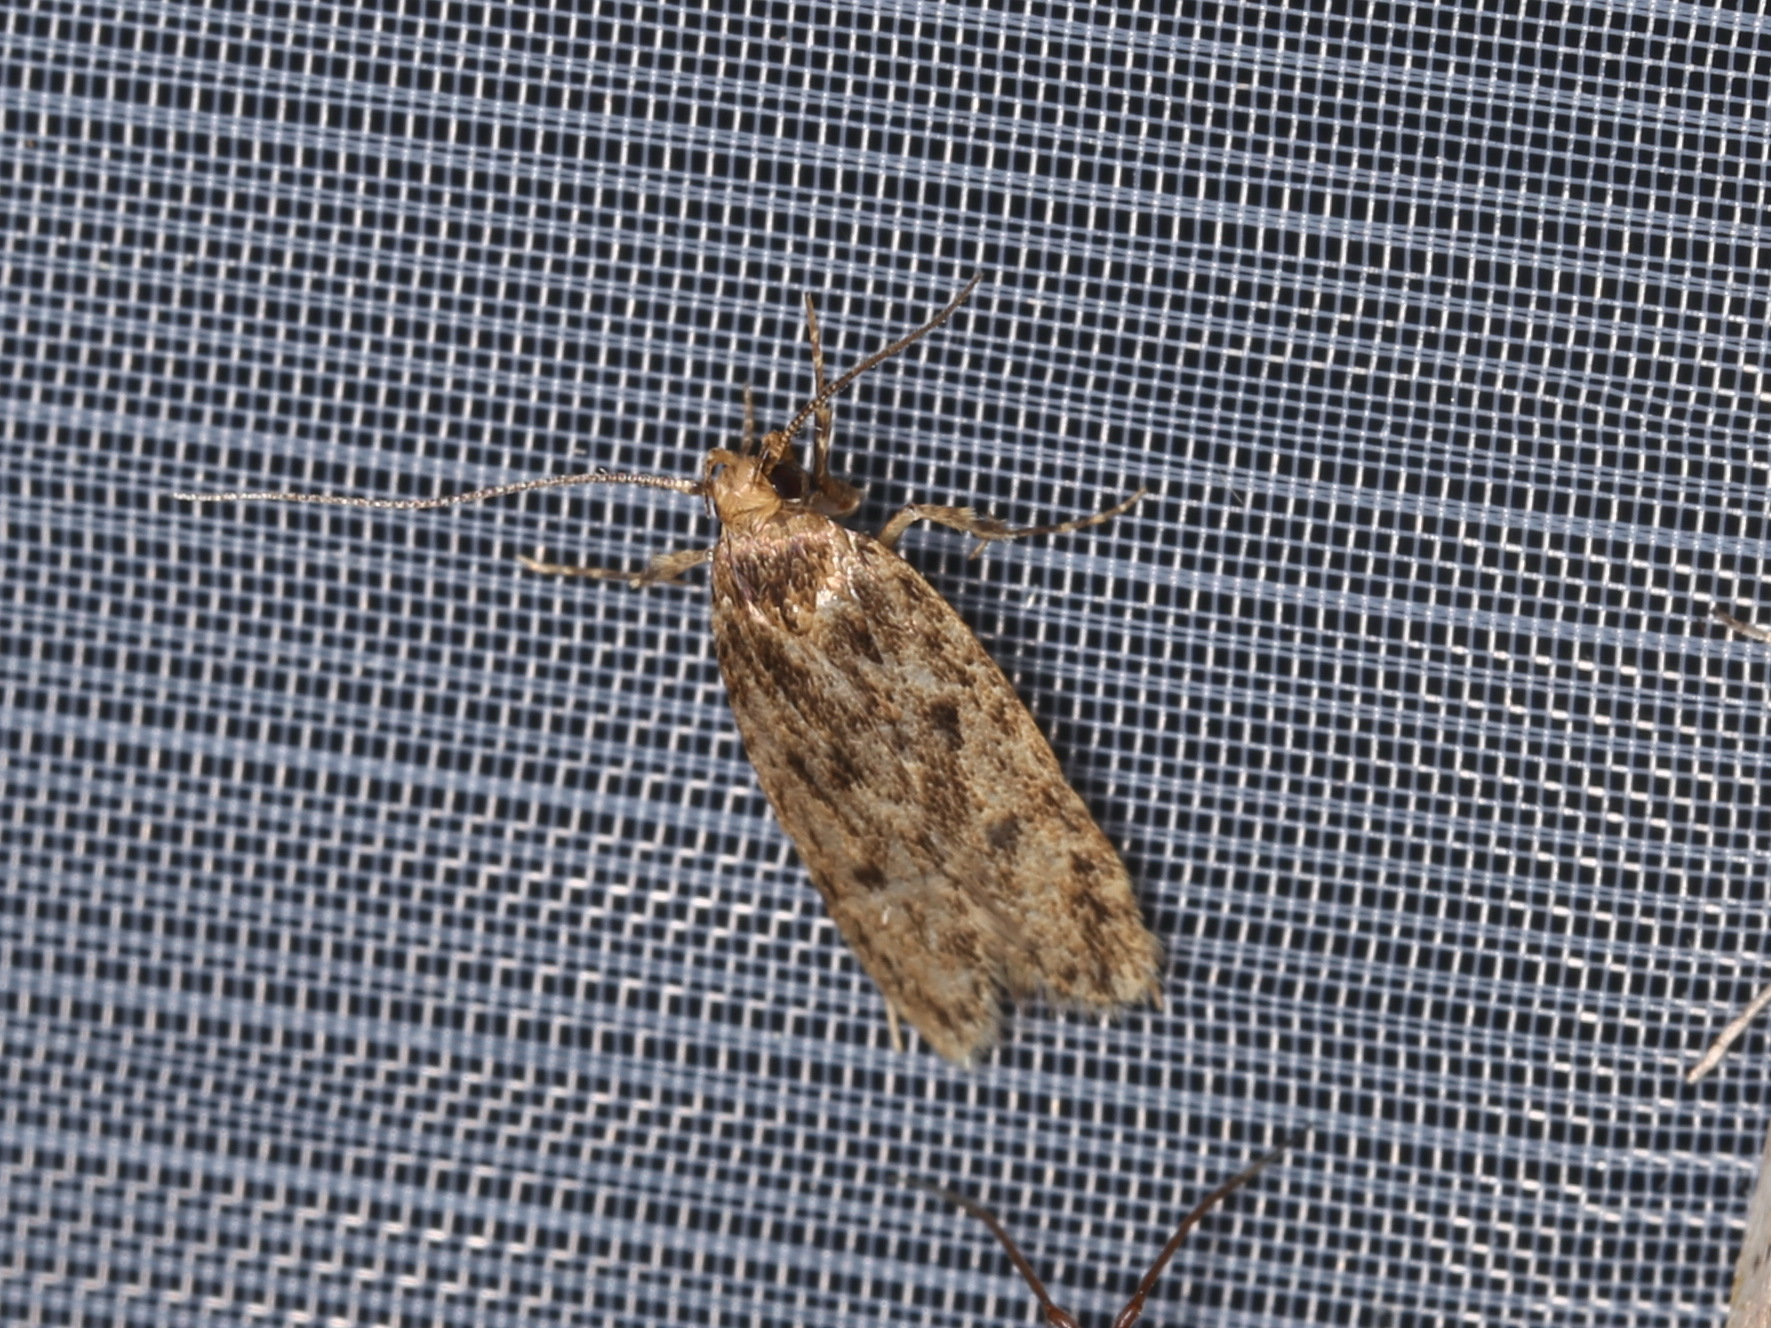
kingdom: Animalia
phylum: Arthropoda
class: Insecta
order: Lepidoptera
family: Oecophoridae
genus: Hofmannophila
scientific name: Hofmannophila pseudospretella
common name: Brown house moth
